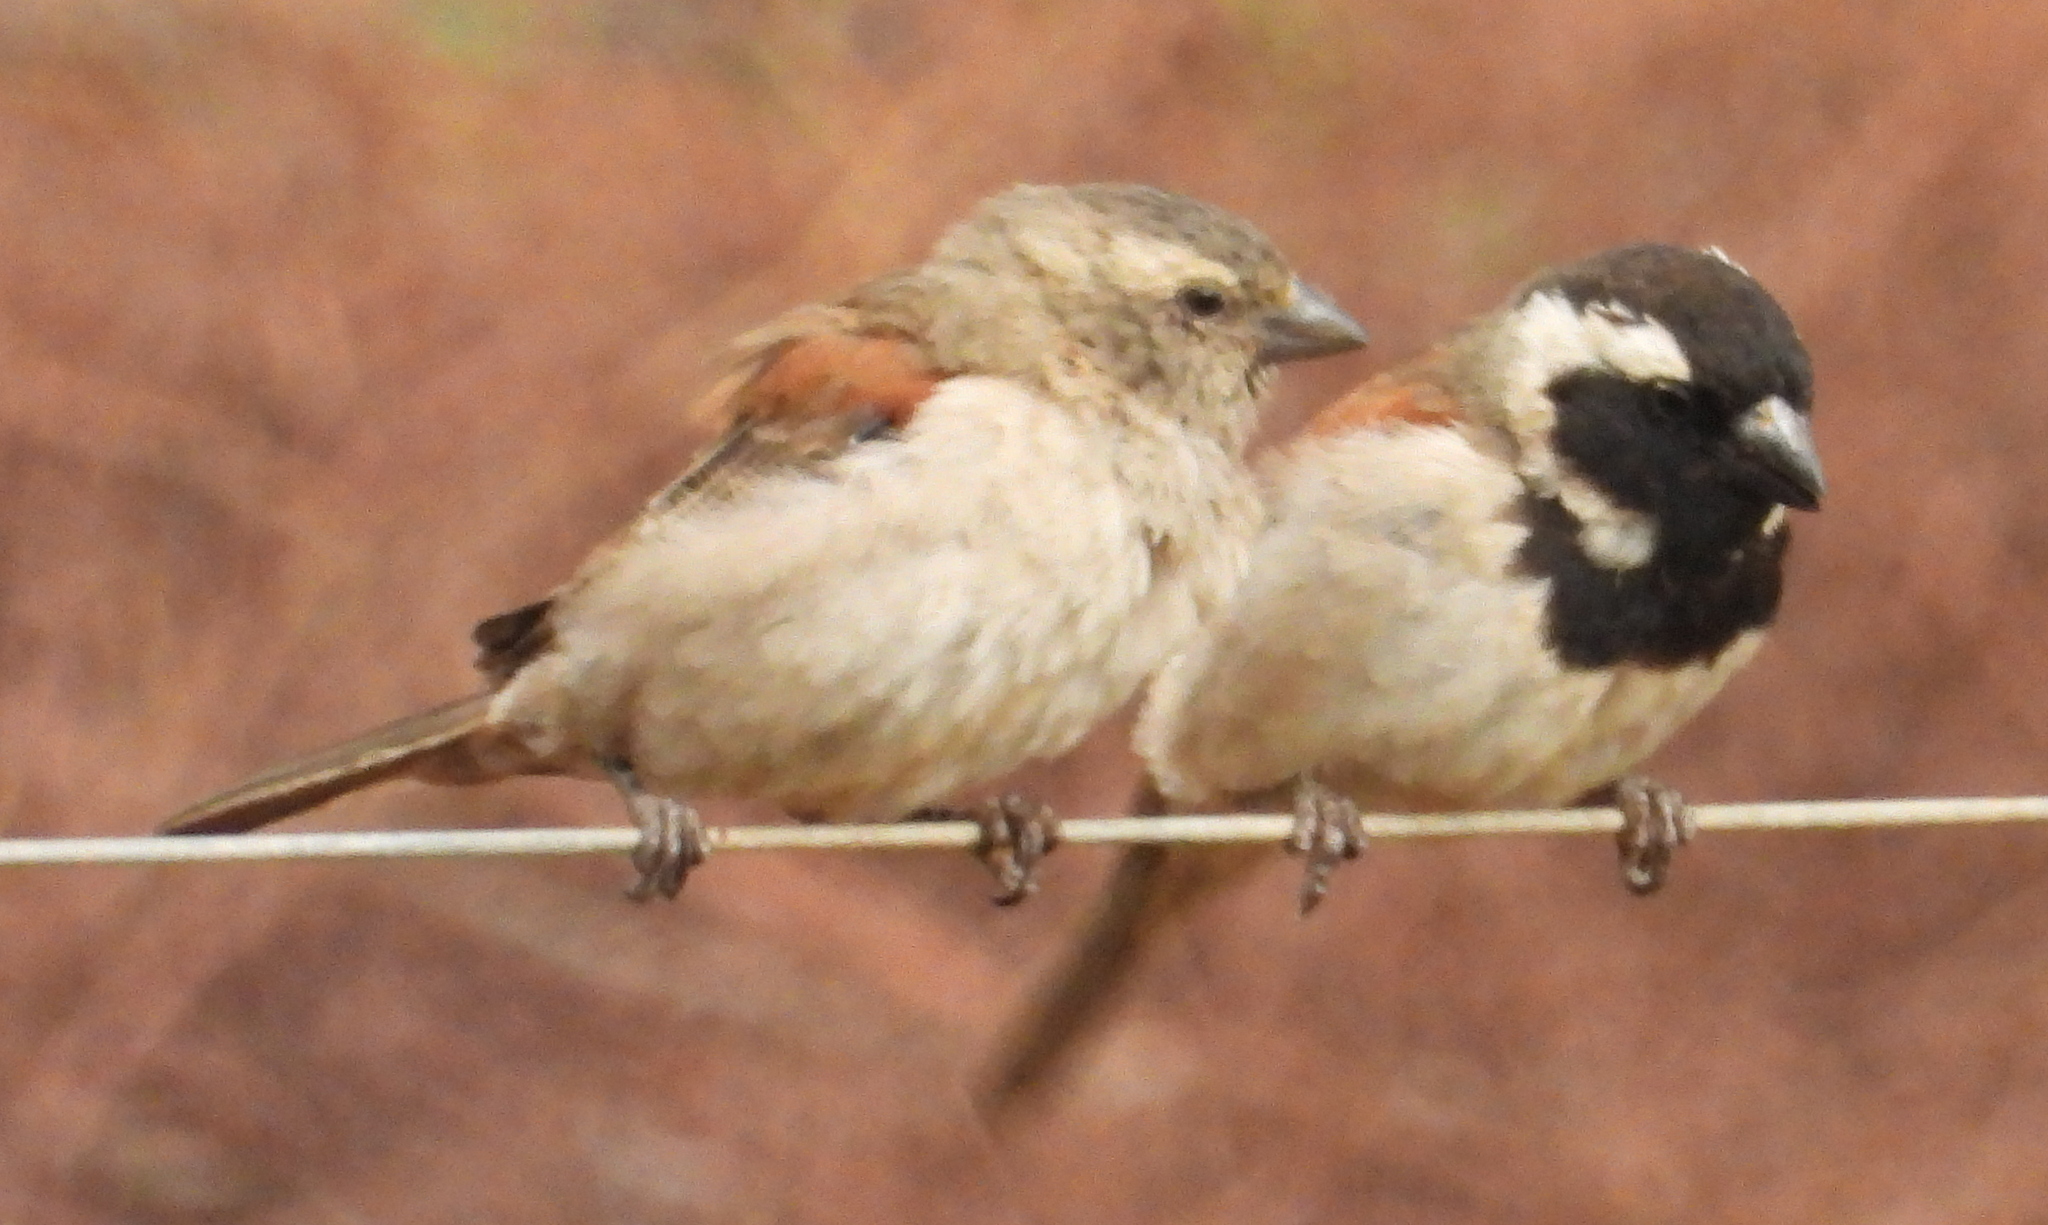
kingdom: Animalia
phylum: Chordata
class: Aves
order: Passeriformes
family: Passeridae
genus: Passer
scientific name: Passer melanurus
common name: Cape sparrow
